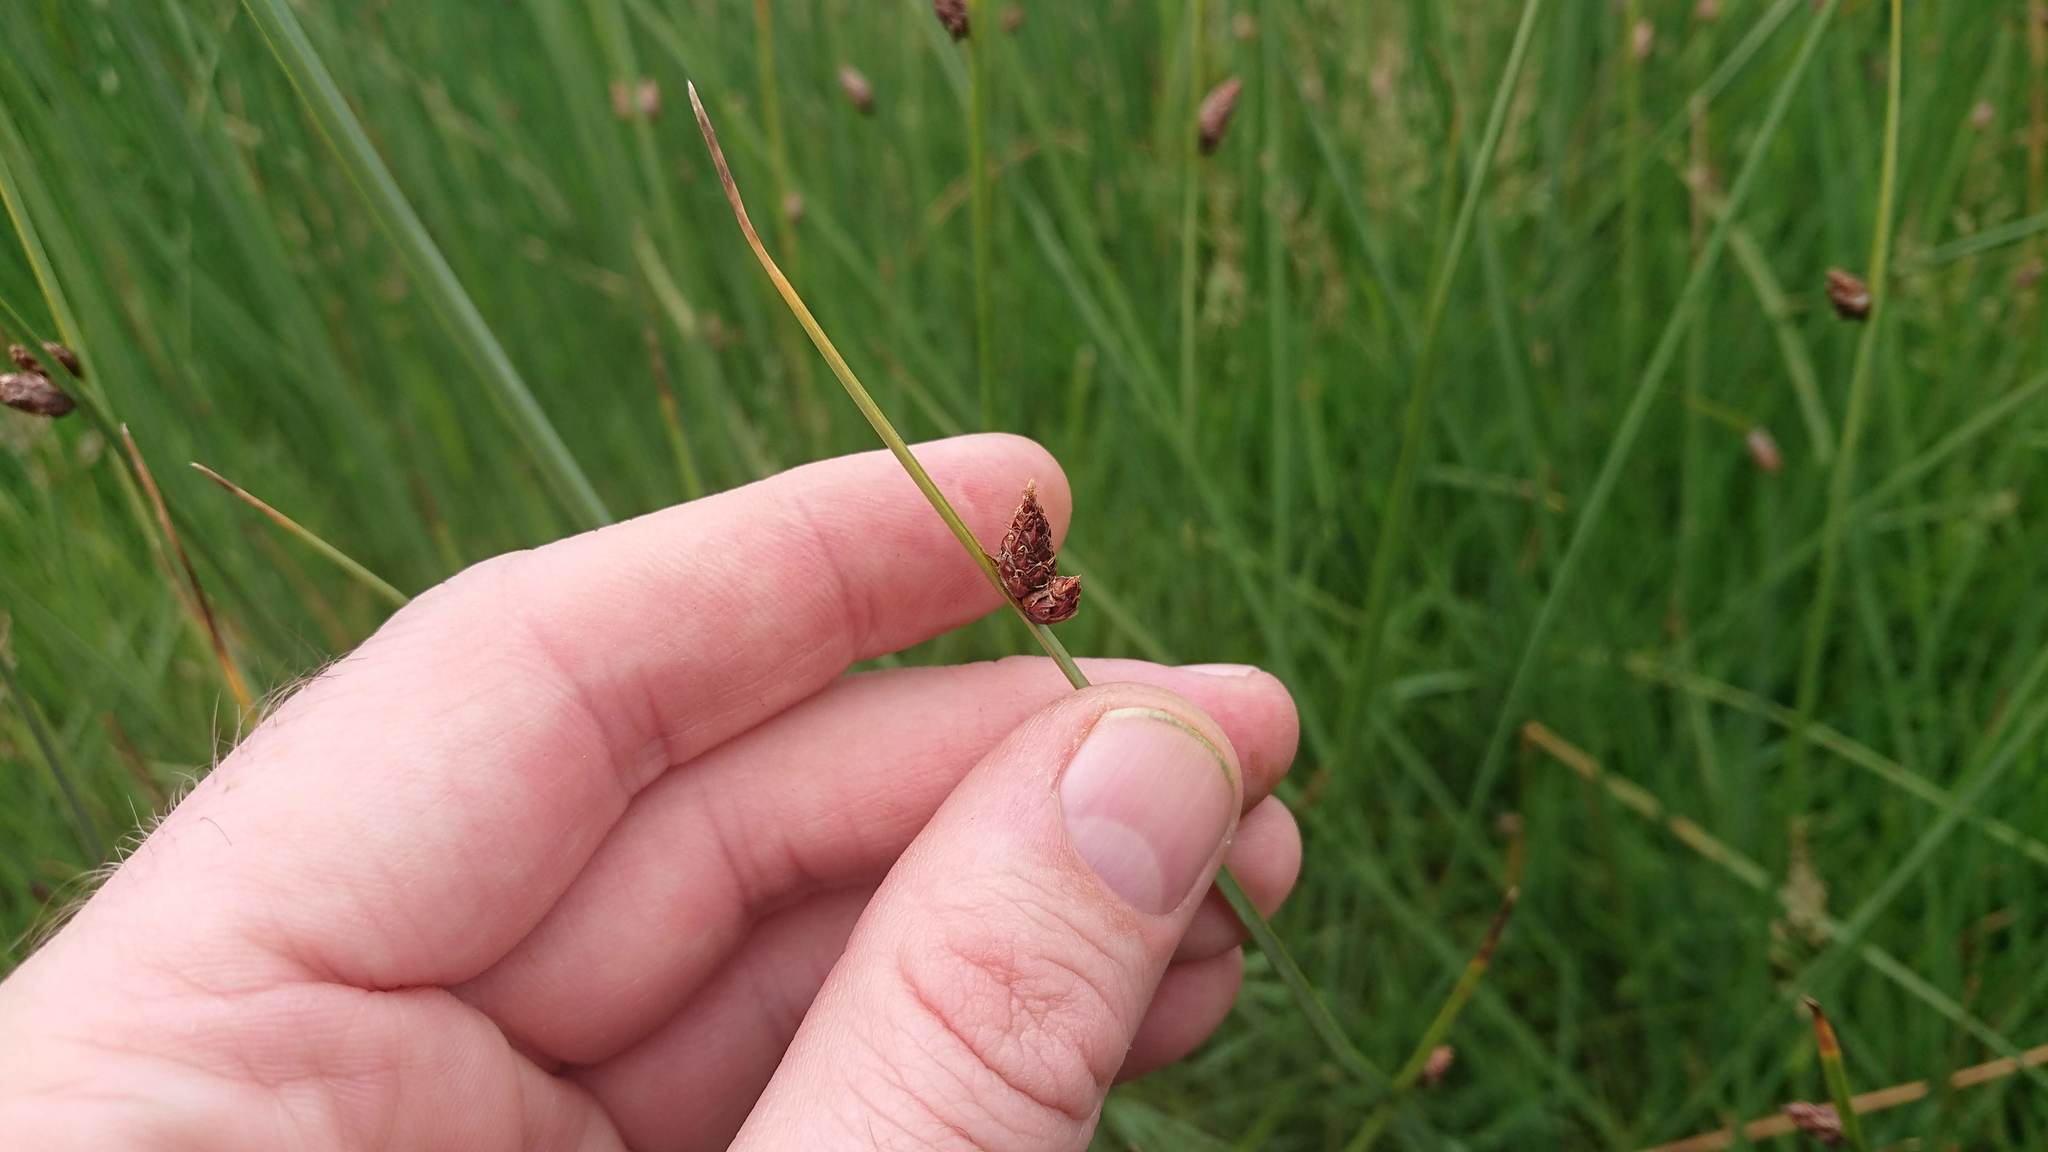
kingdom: Plantae
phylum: Tracheophyta
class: Liliopsida
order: Poales
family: Cyperaceae
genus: Schoenoplectus
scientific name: Schoenoplectus pungens
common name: Sharp club-rush
